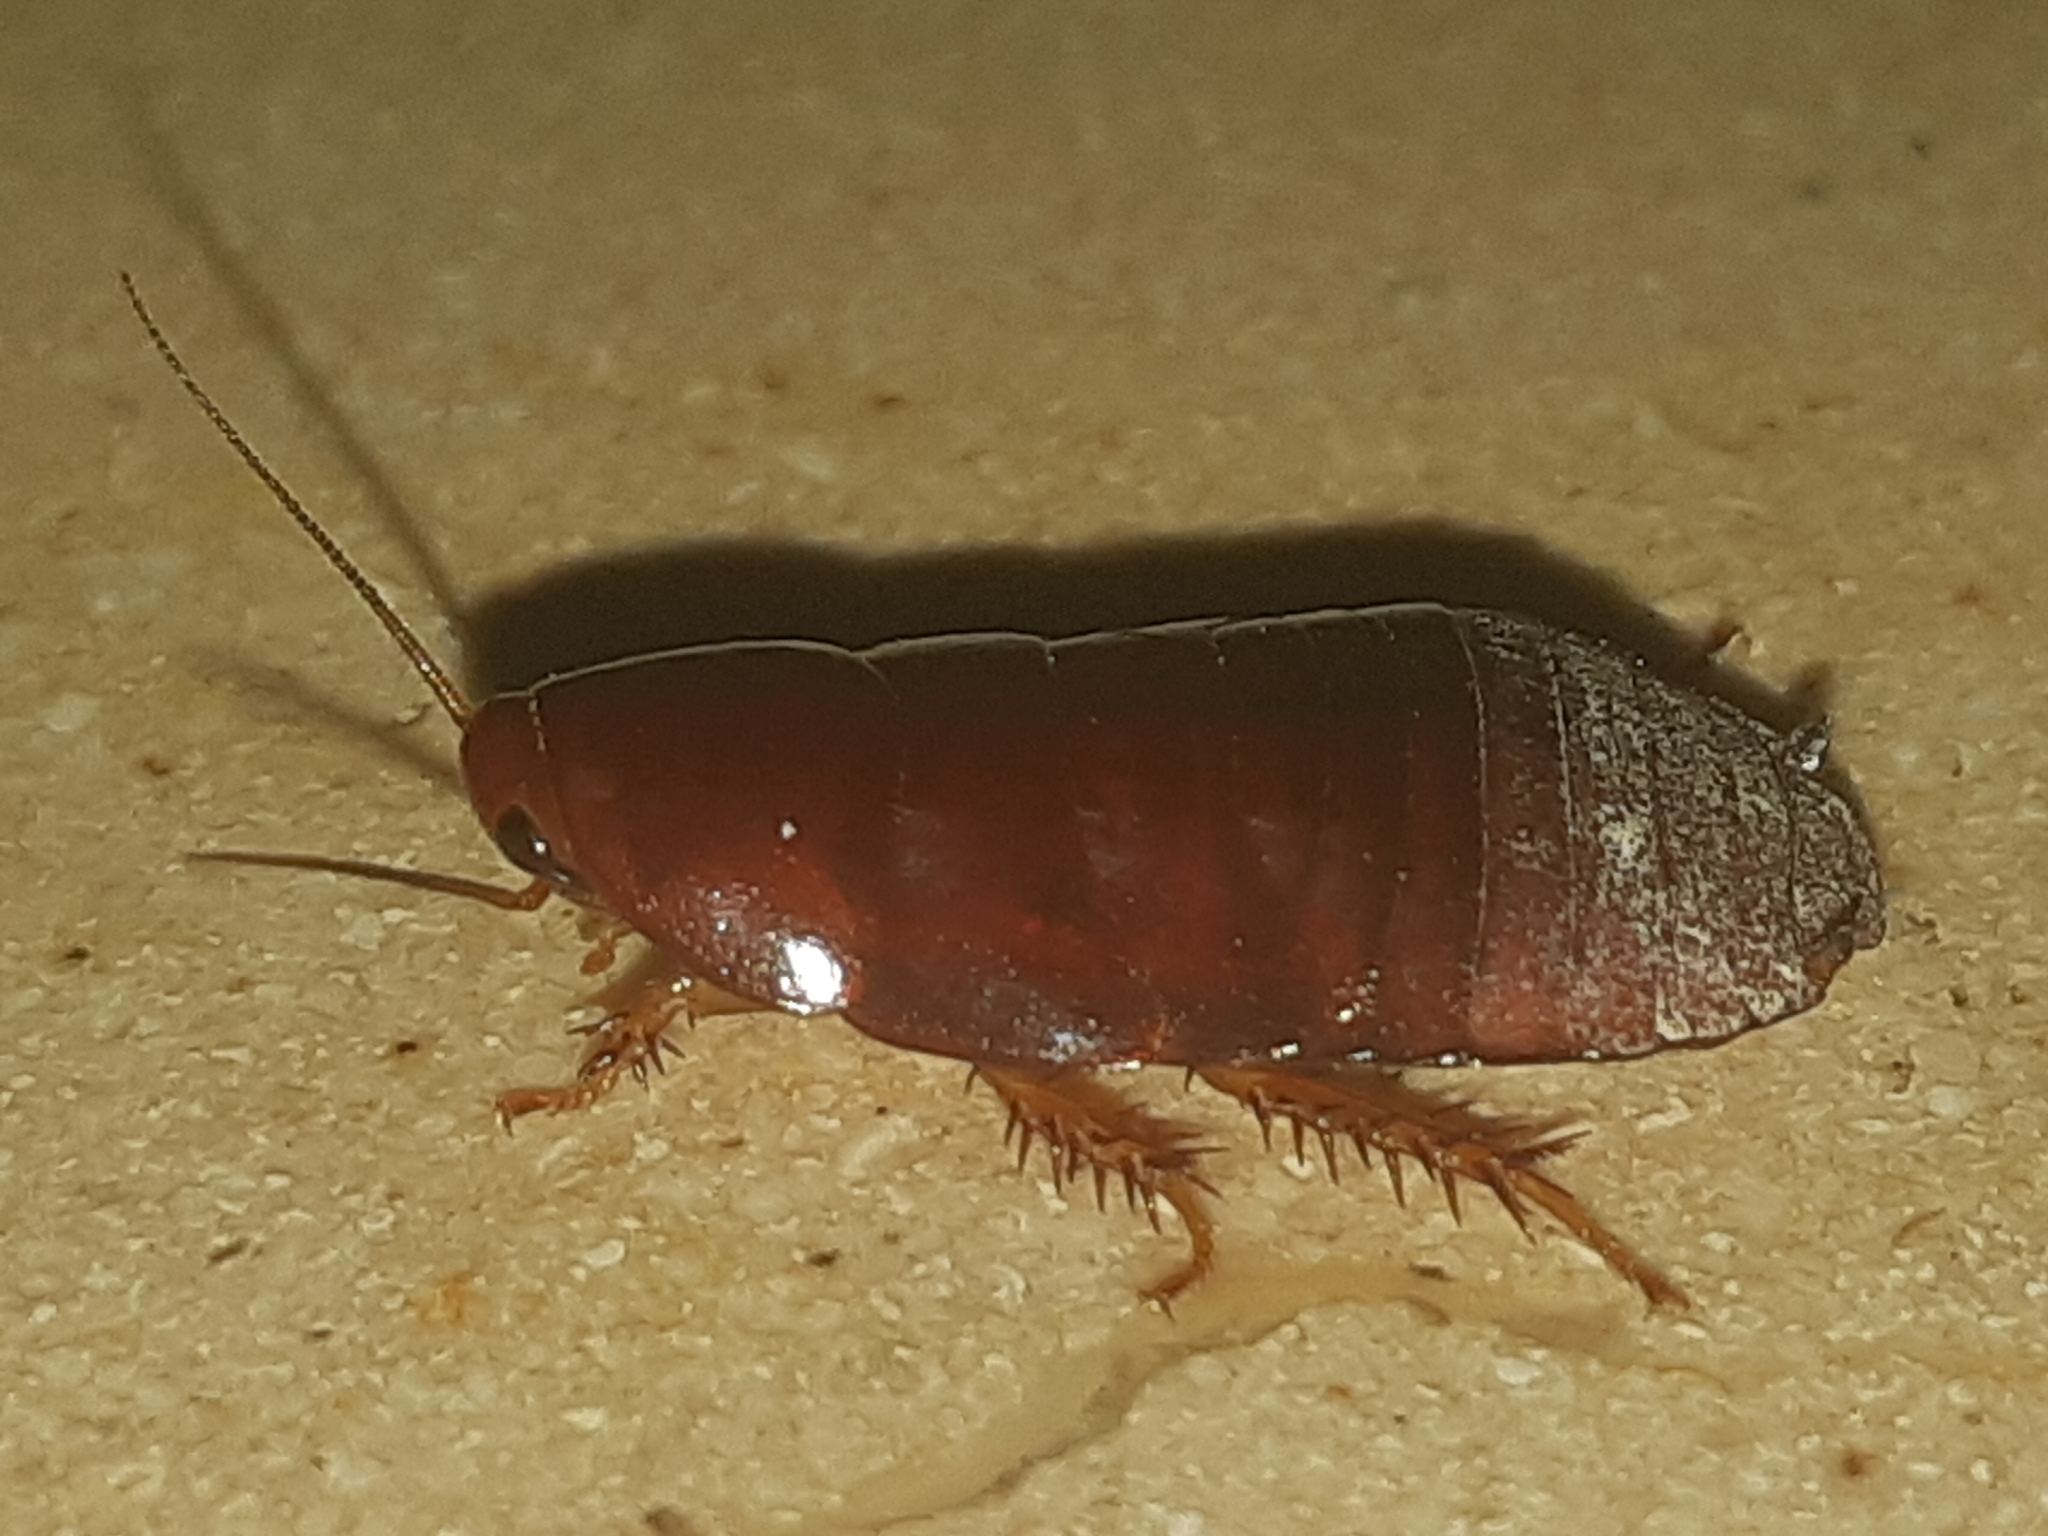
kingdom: Animalia
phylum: Arthropoda
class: Insecta
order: Blattodea
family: Blaberidae
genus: Pycnoscelus
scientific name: Pycnoscelus surinamensis
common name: Surinam cockroach
